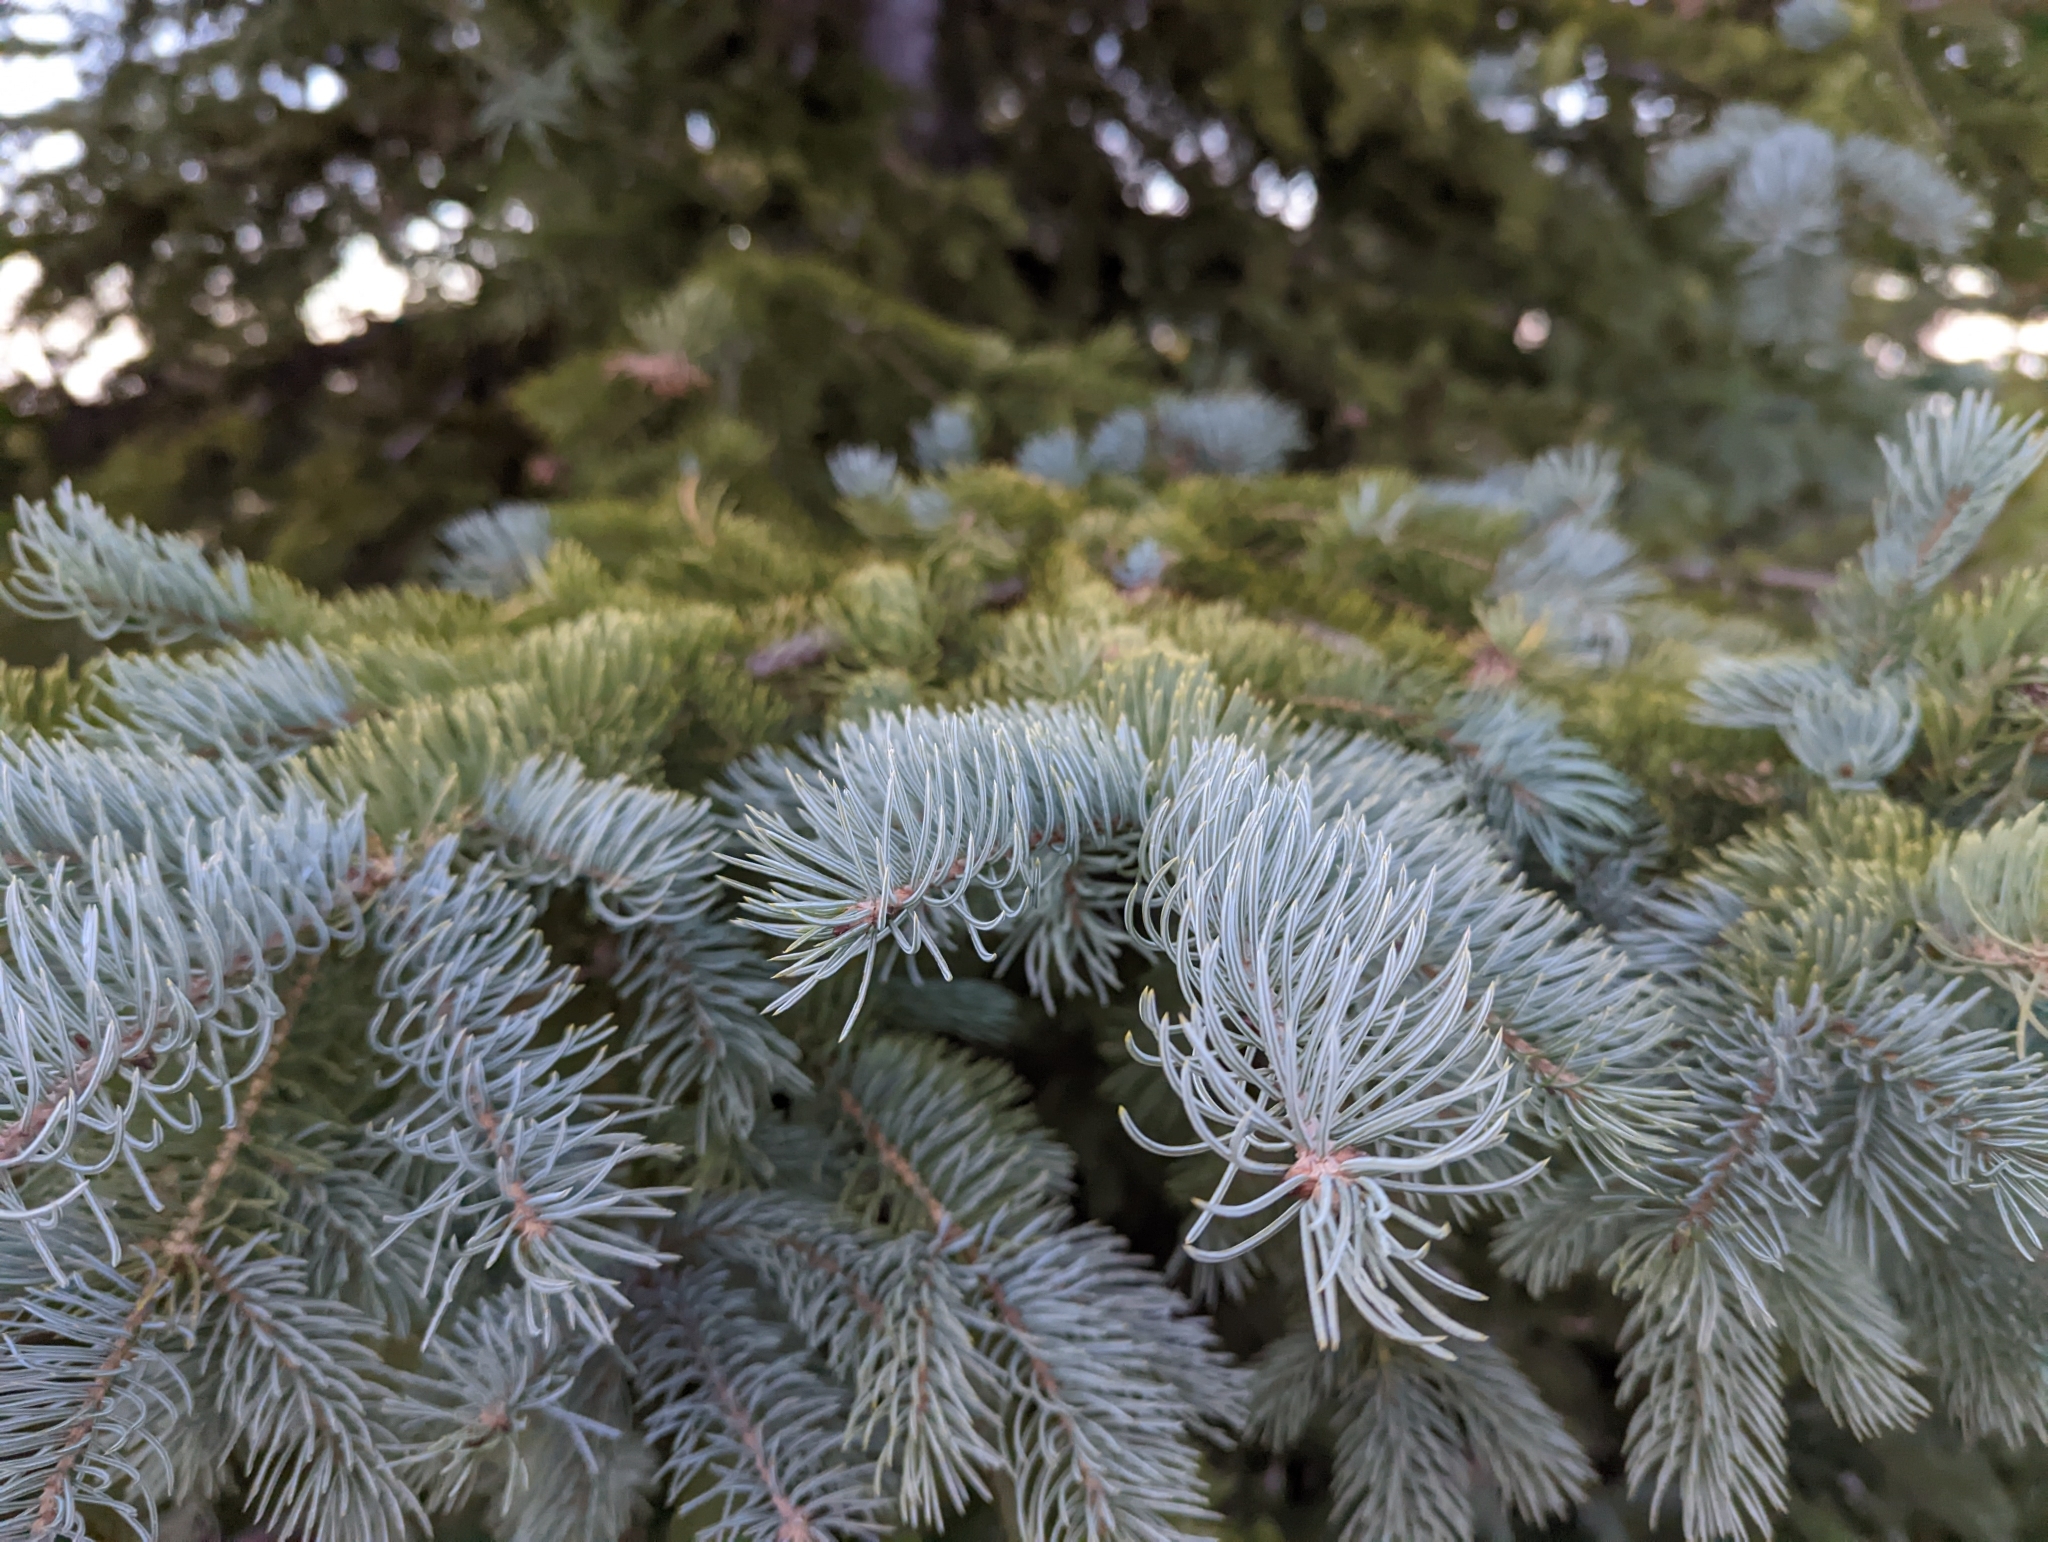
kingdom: Plantae
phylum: Tracheophyta
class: Pinopsida
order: Pinales
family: Pinaceae
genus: Picea
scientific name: Picea engelmannii
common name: Engelmann spruce
